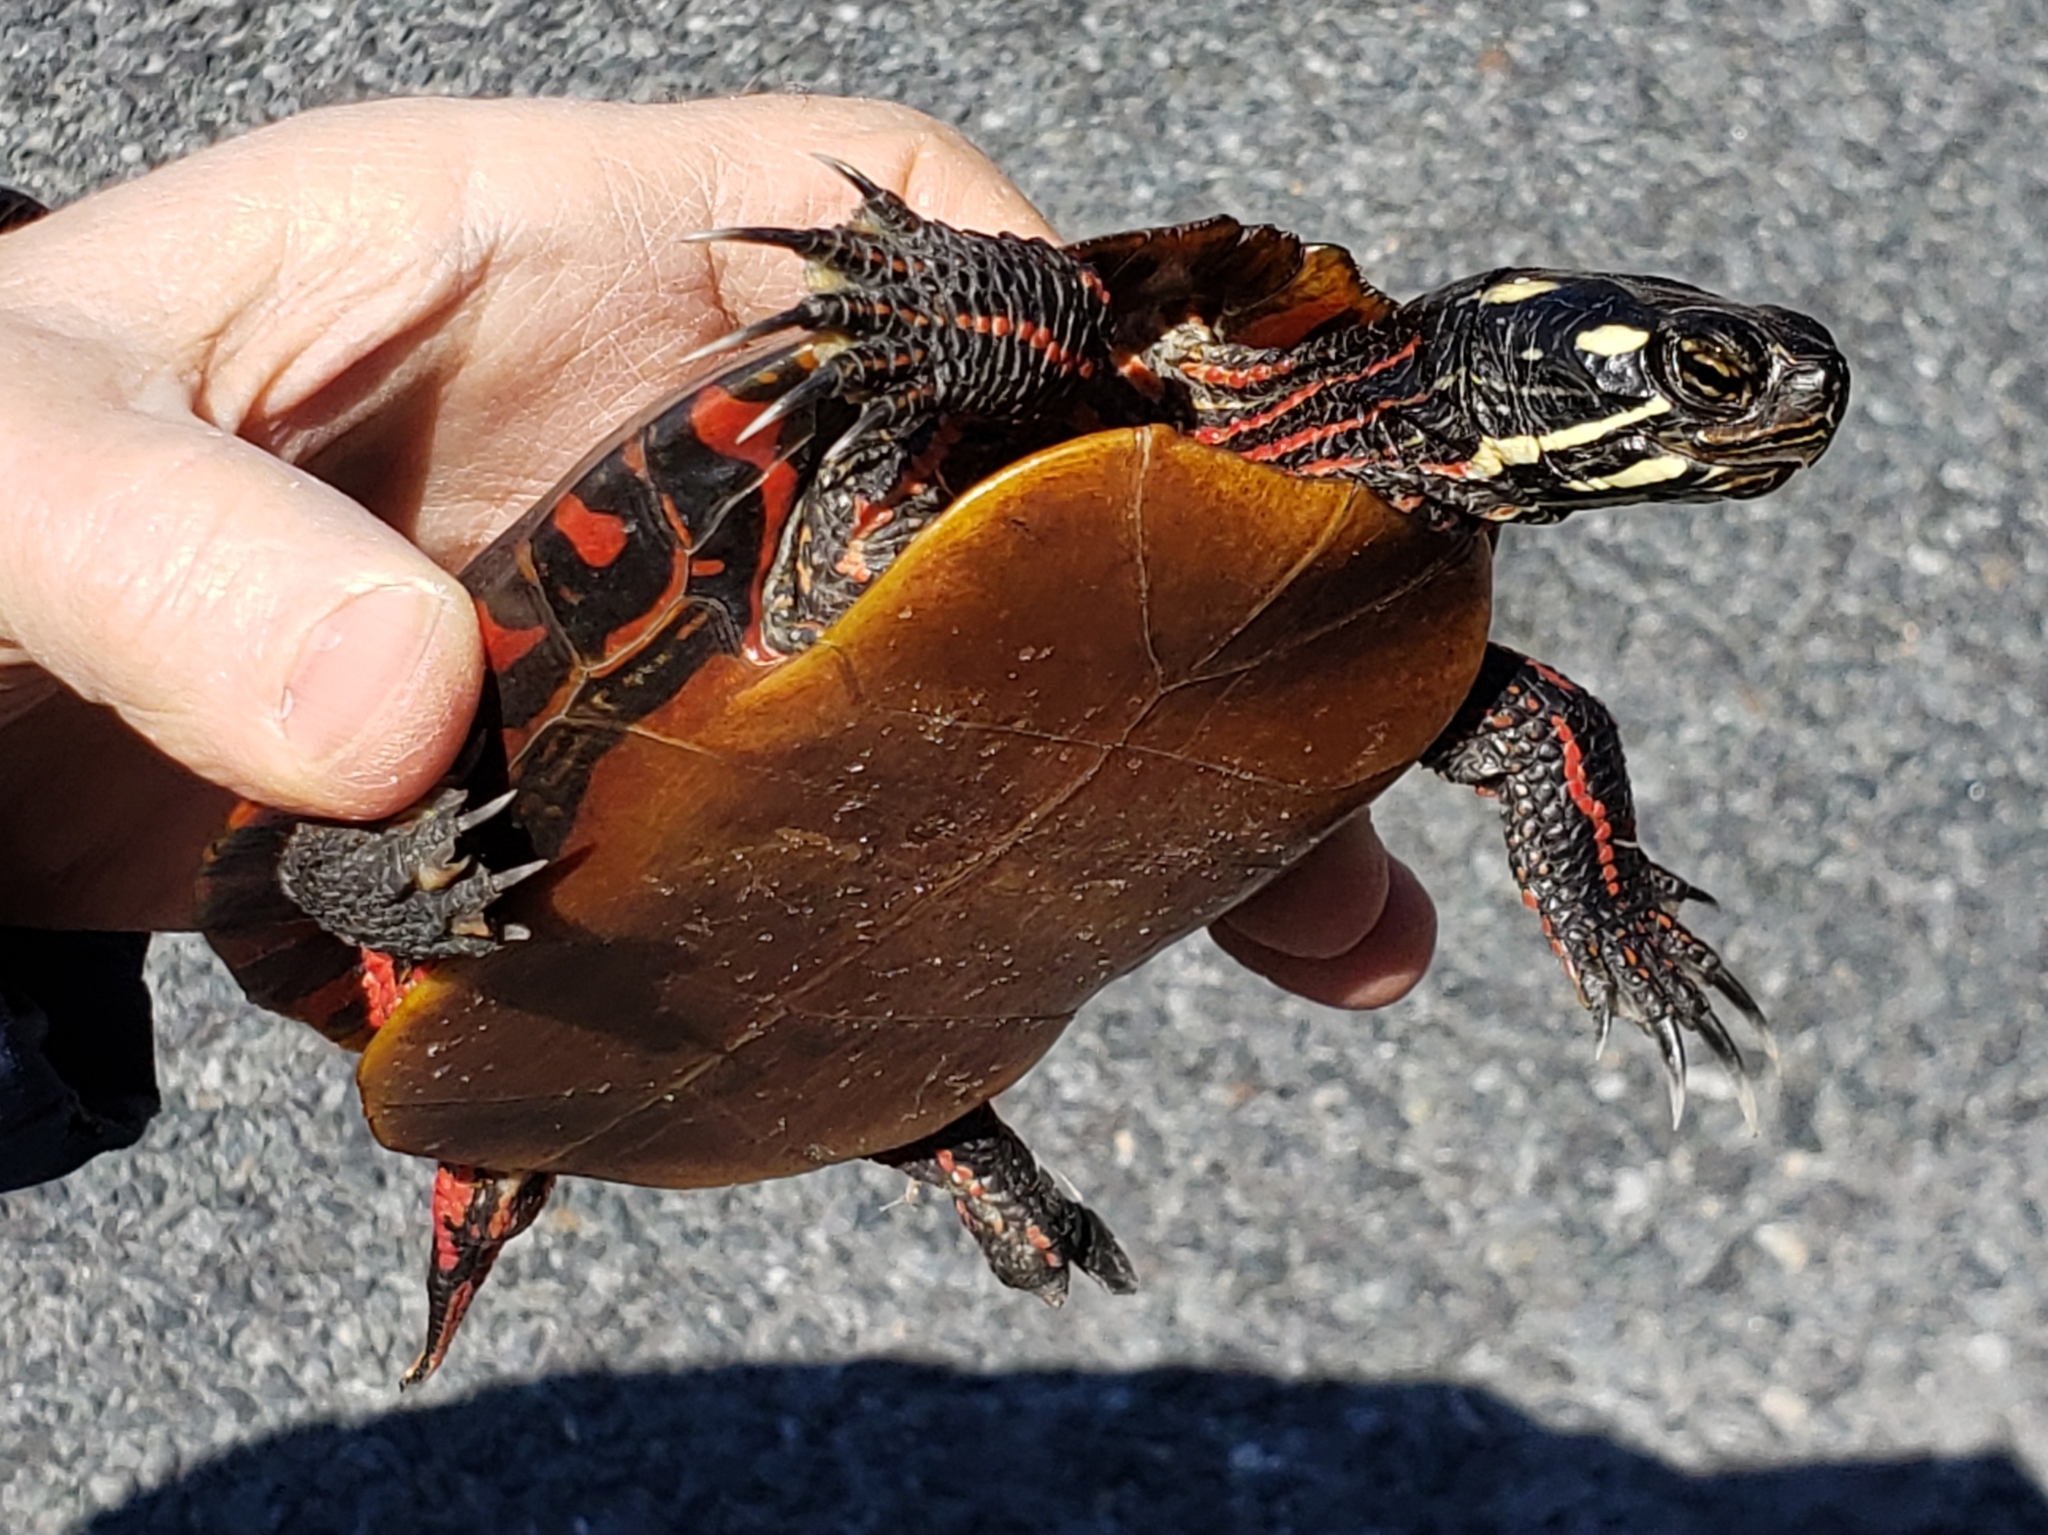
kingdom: Animalia
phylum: Chordata
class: Testudines
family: Emydidae
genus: Chrysemys
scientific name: Chrysemys picta
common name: Painted turtle
